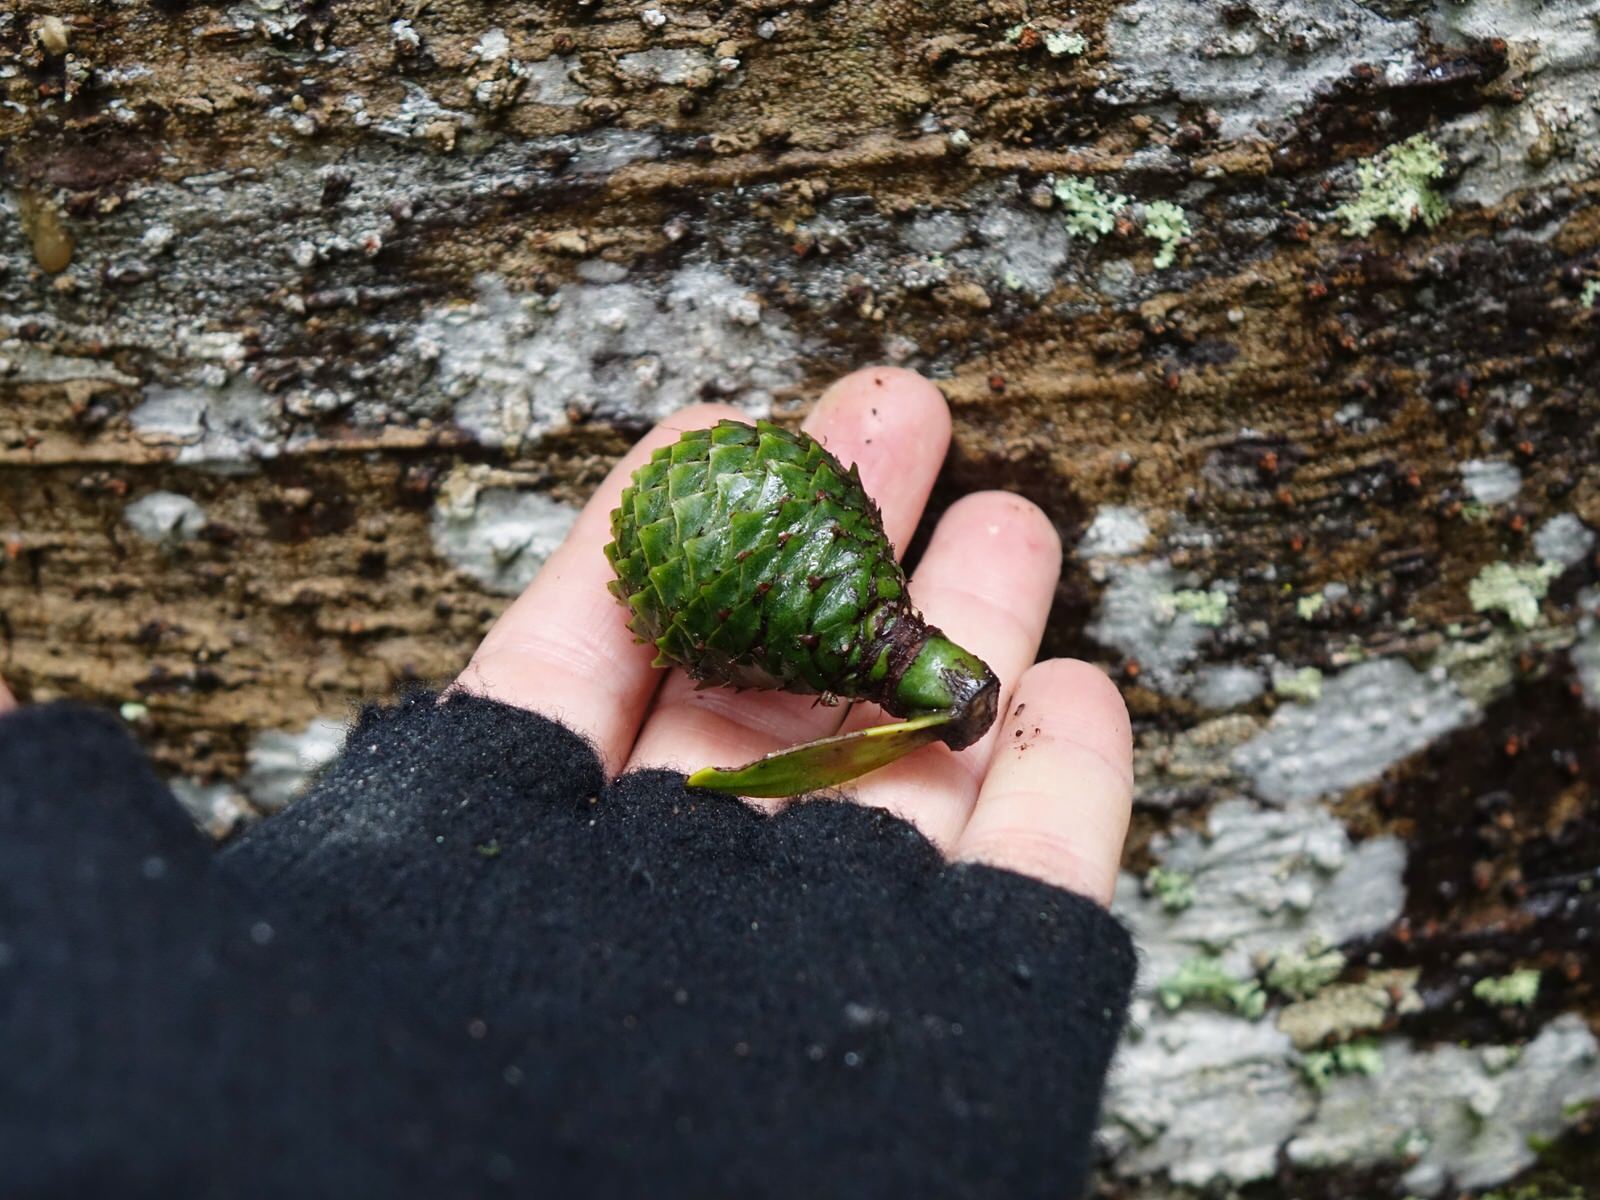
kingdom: Plantae
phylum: Tracheophyta
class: Pinopsida
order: Pinales
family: Araucariaceae
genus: Agathis
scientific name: Agathis australis
